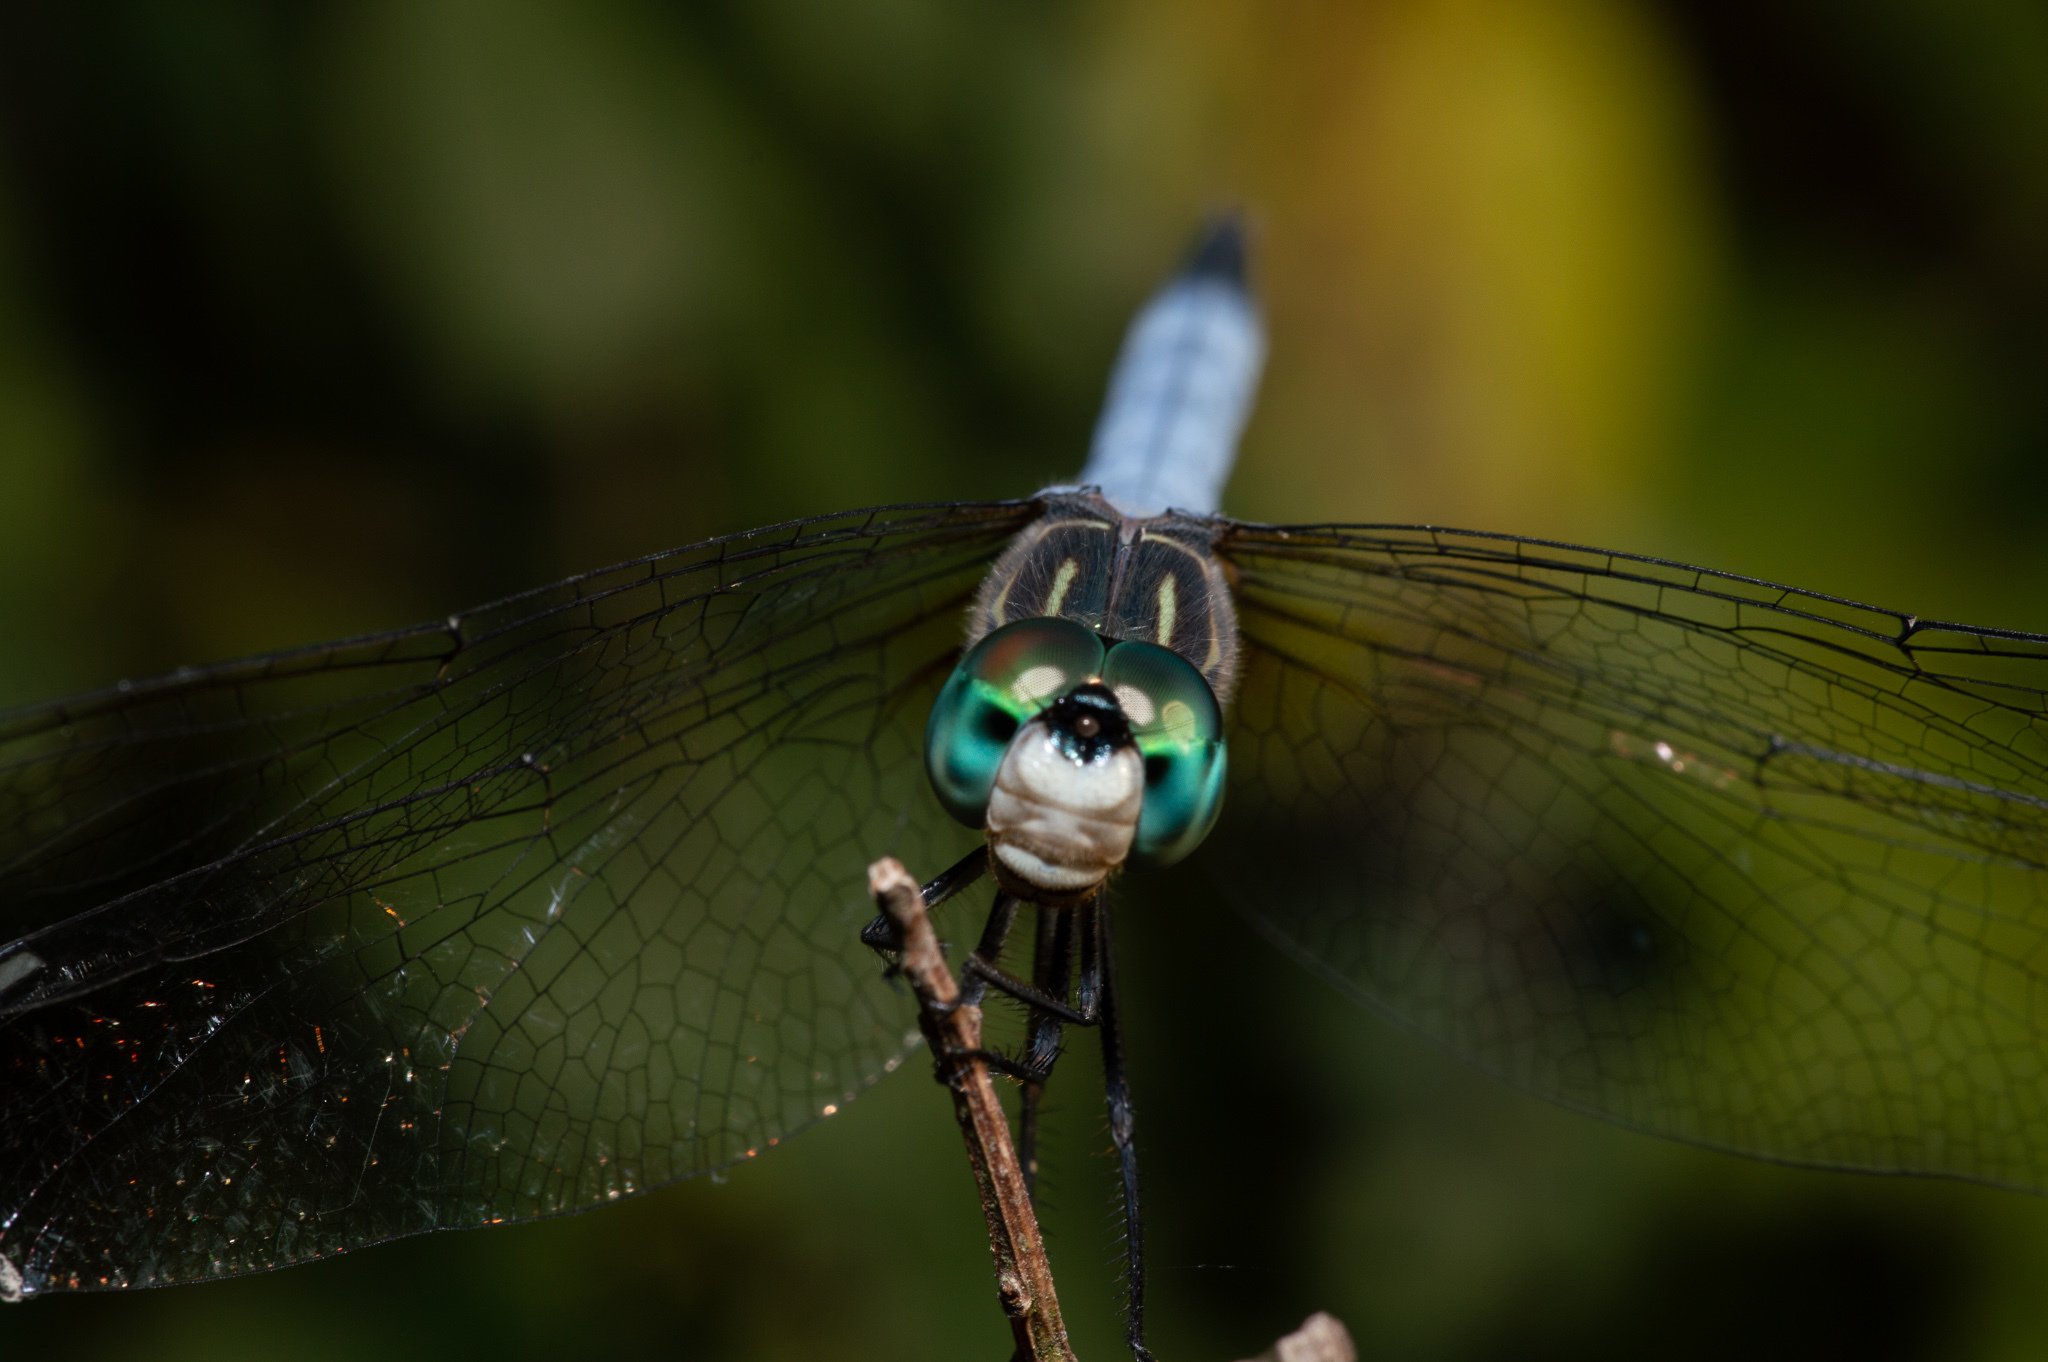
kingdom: Animalia
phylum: Arthropoda
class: Insecta
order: Odonata
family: Libellulidae
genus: Pachydiplax
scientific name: Pachydiplax longipennis
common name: Blue dasher
